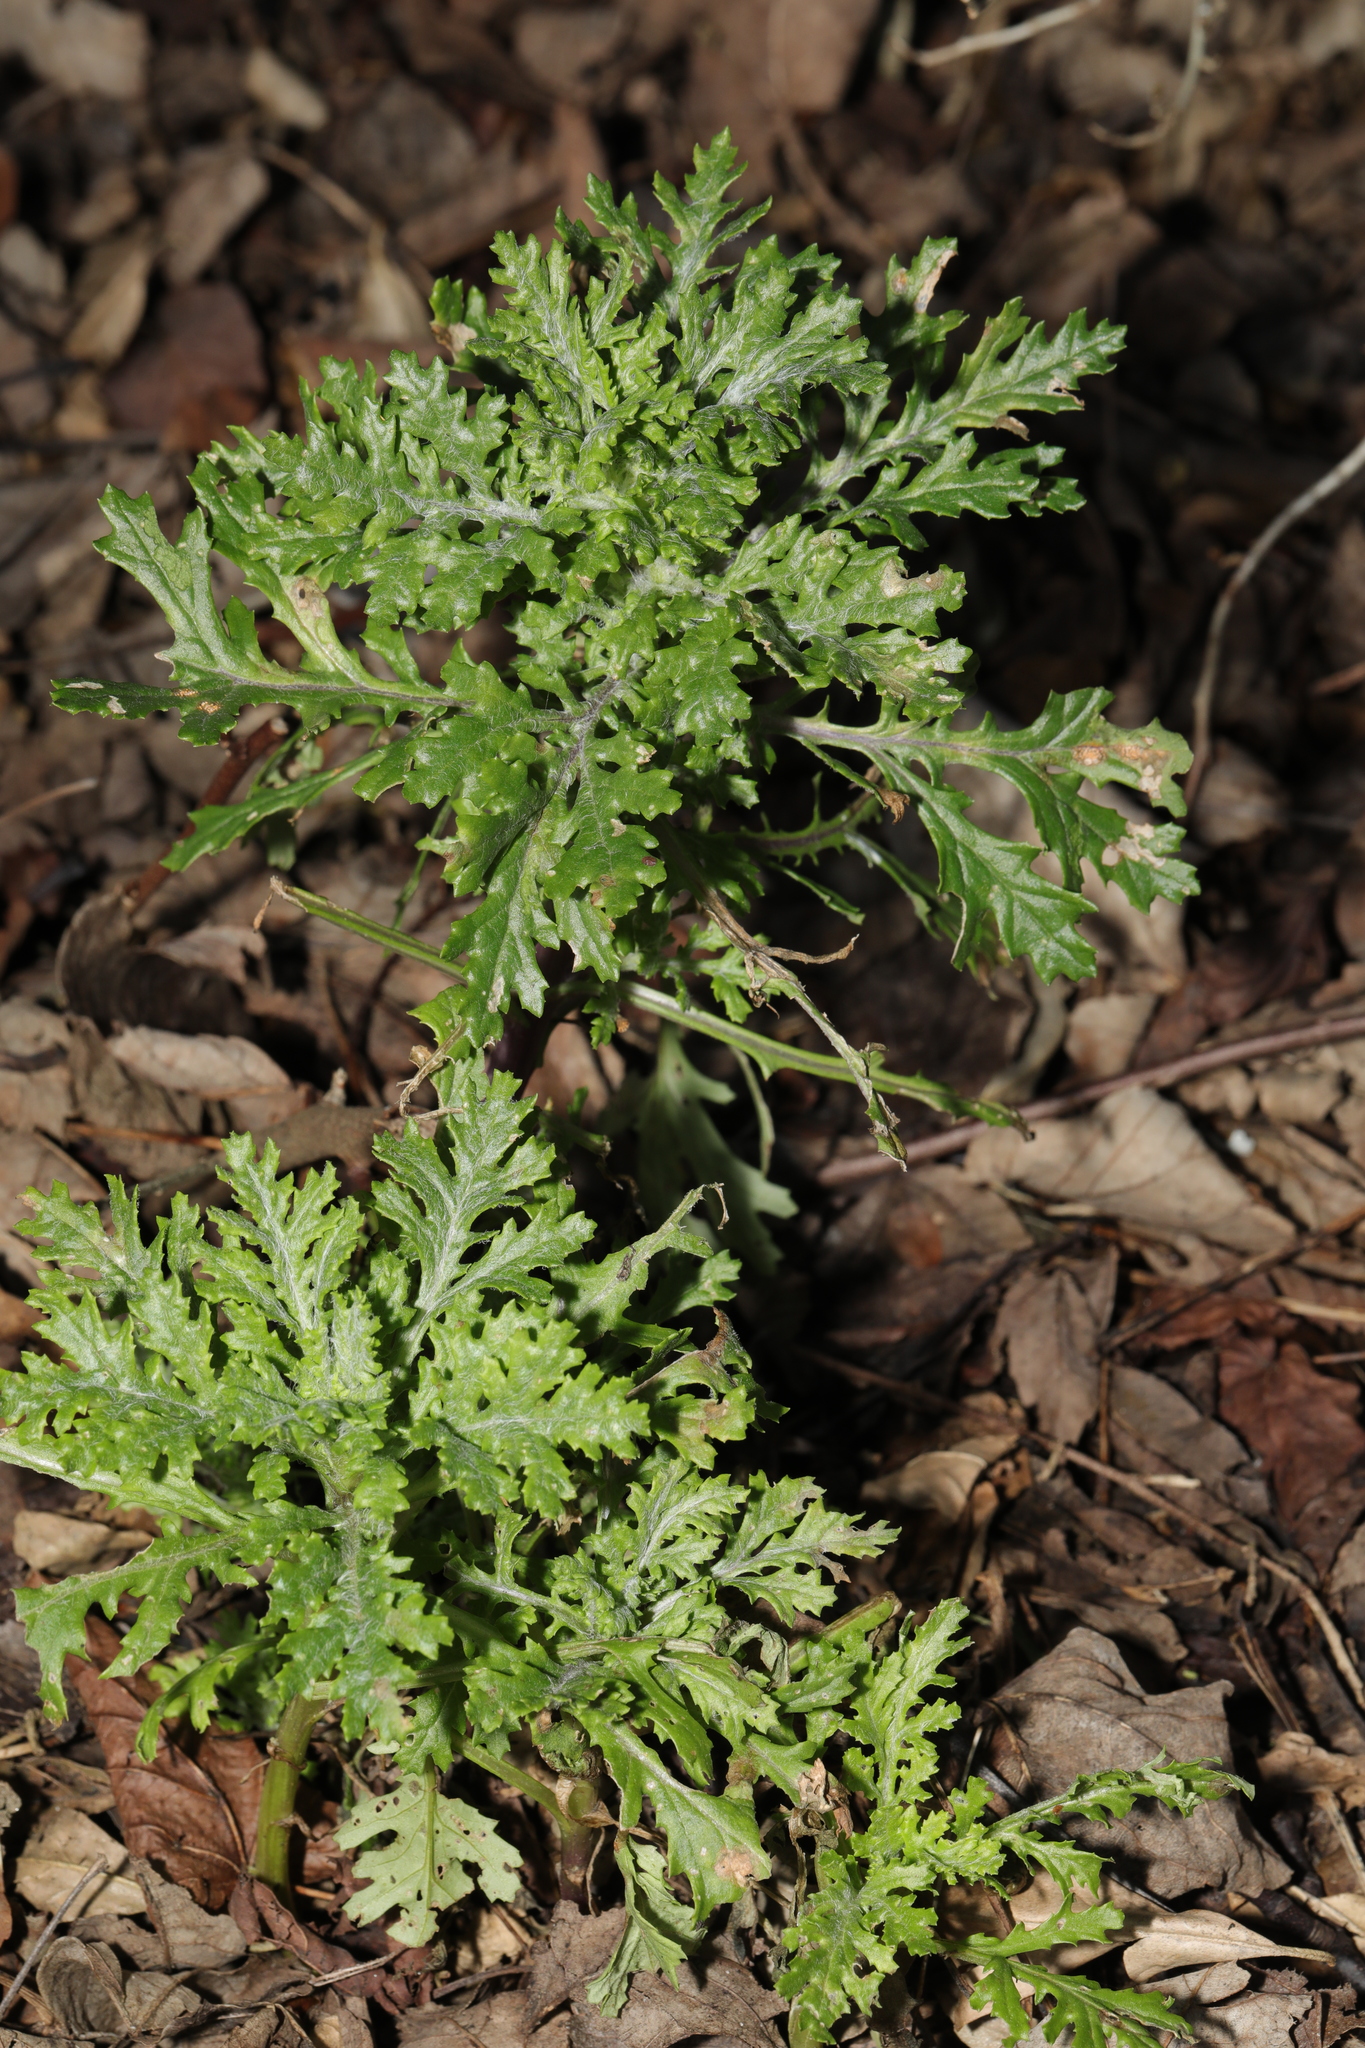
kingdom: Plantae
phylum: Tracheophyta
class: Magnoliopsida
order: Asterales
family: Asteraceae
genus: Senecio
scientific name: Senecio squalidus
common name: Oxford ragwort
